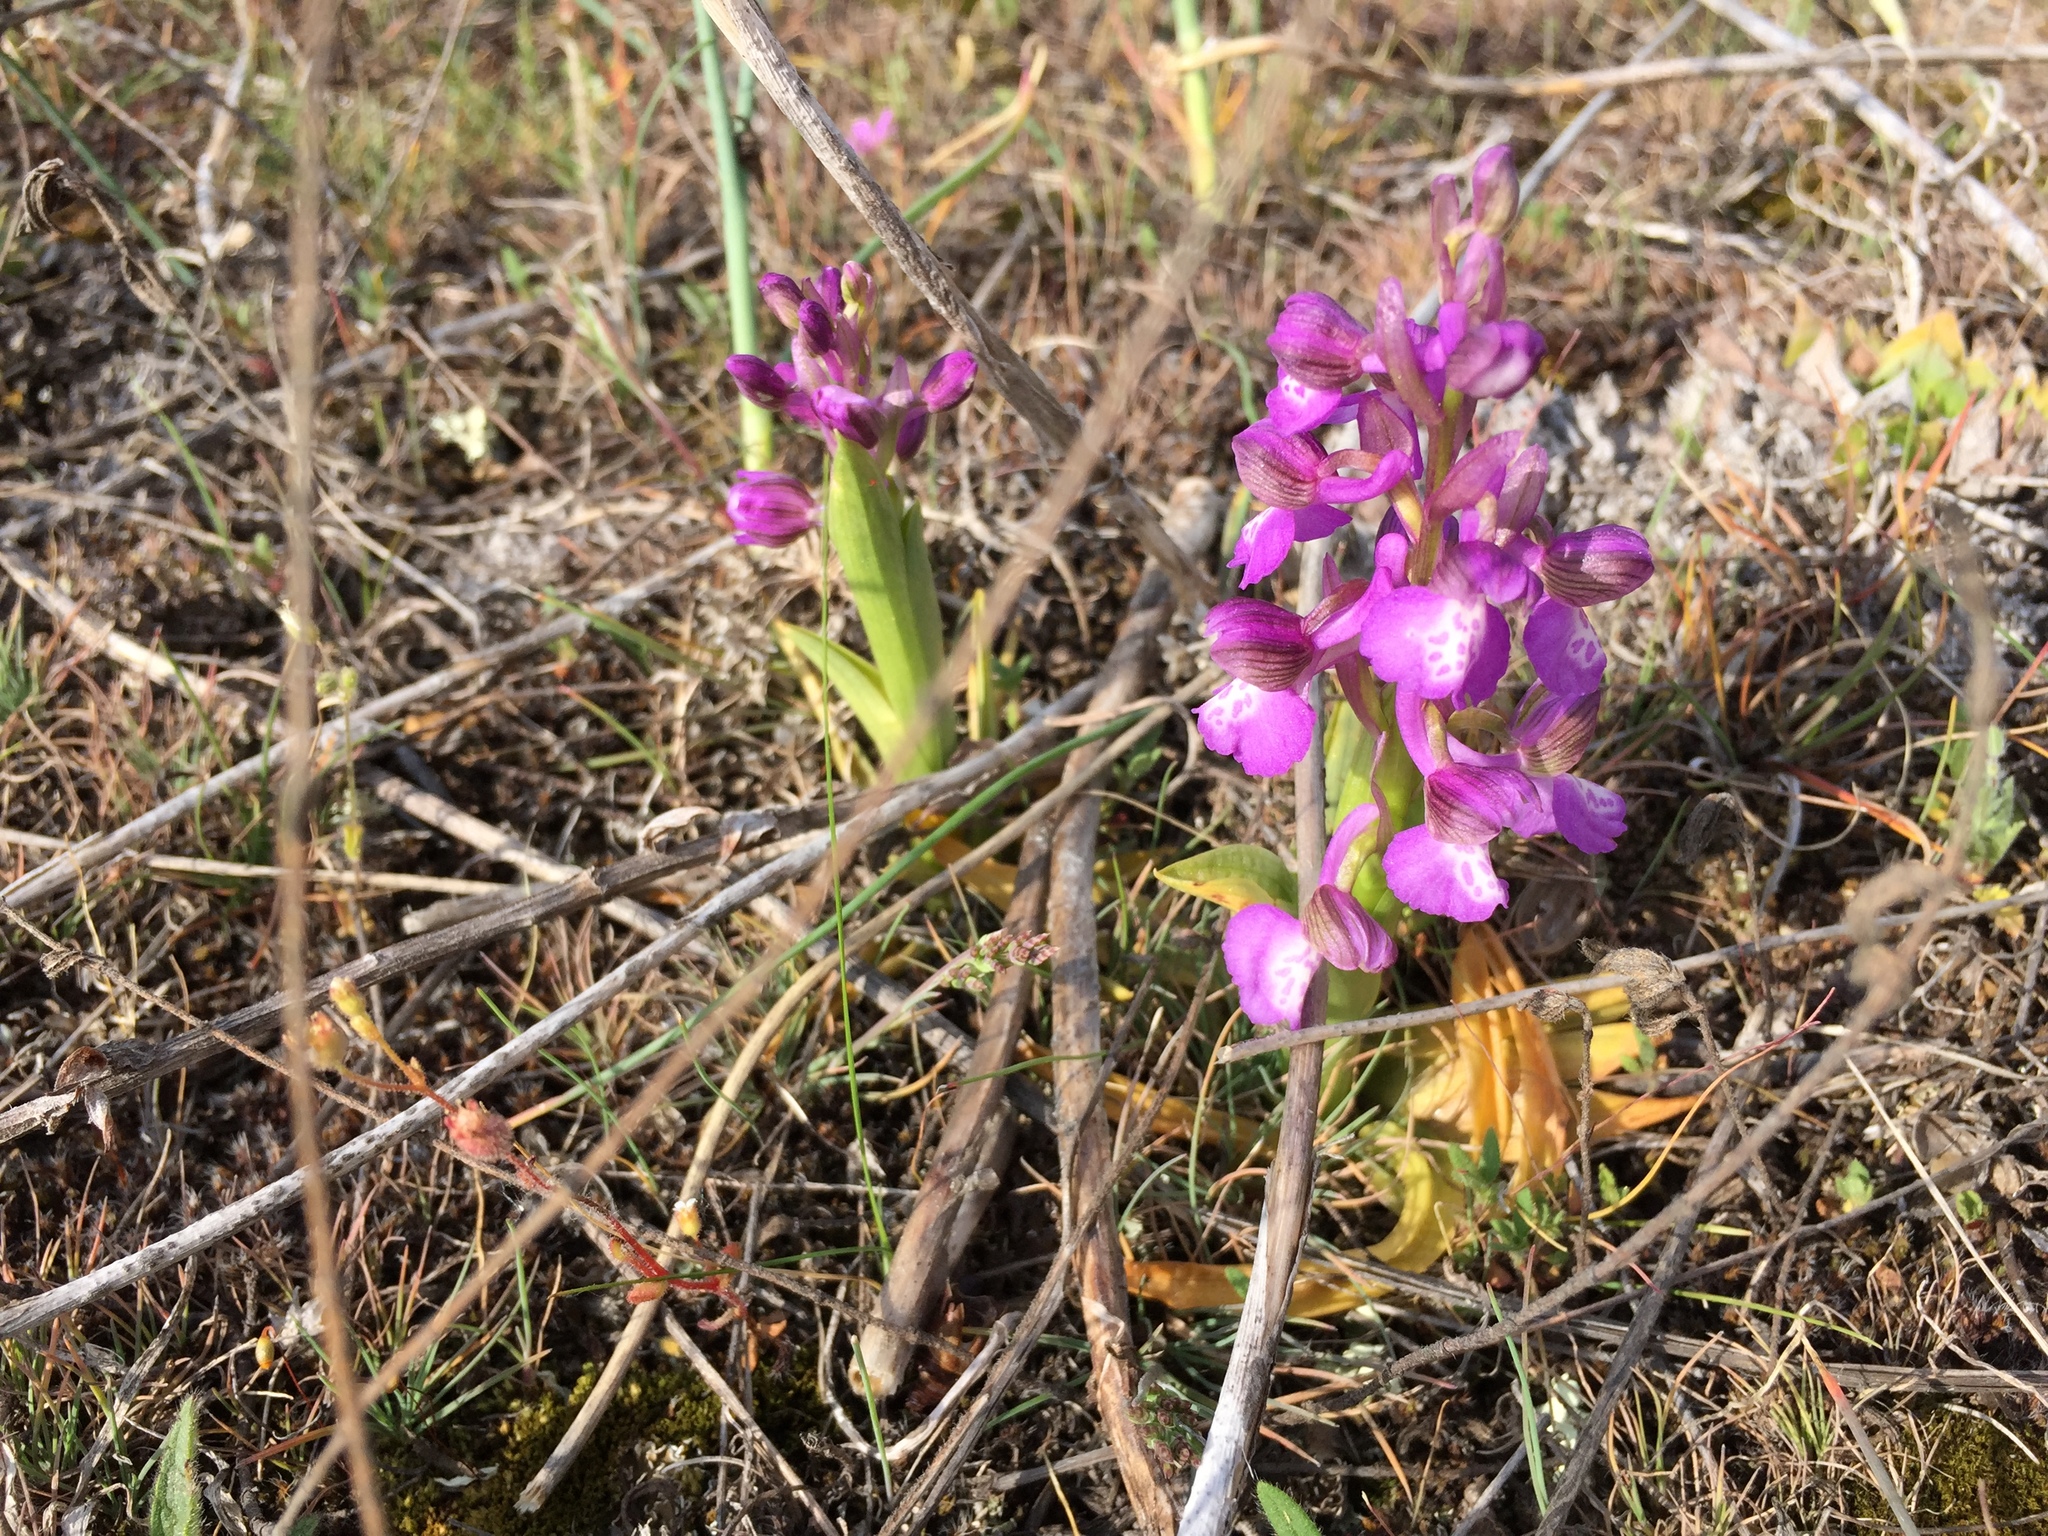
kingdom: Plantae
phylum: Tracheophyta
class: Liliopsida
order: Asparagales
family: Orchidaceae
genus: Anacamptis
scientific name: Anacamptis morio
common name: Green-winged orchid
